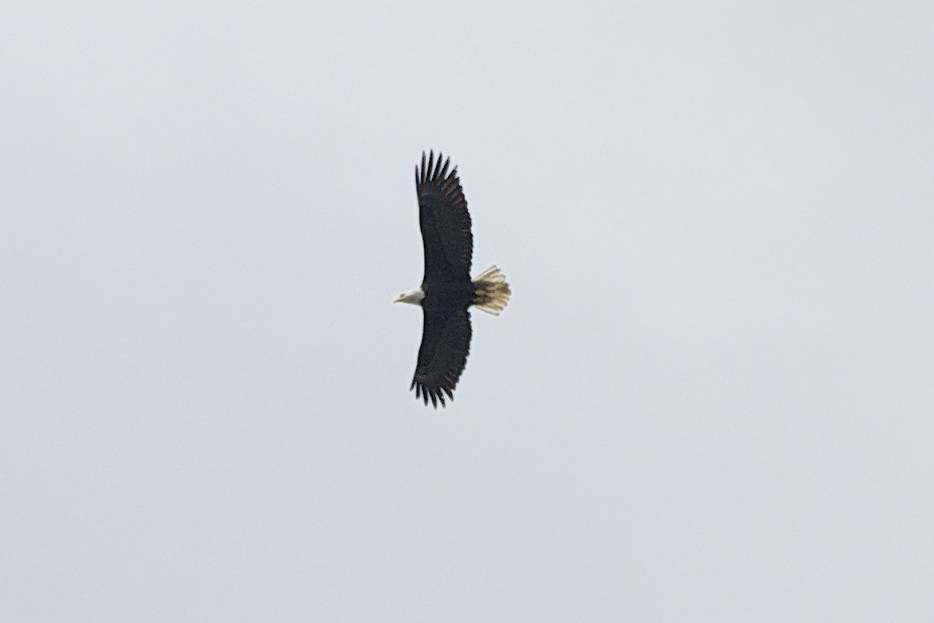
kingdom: Animalia
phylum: Chordata
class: Aves
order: Accipitriformes
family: Accipitridae
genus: Haliaeetus
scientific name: Haliaeetus leucocephalus
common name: Bald eagle
